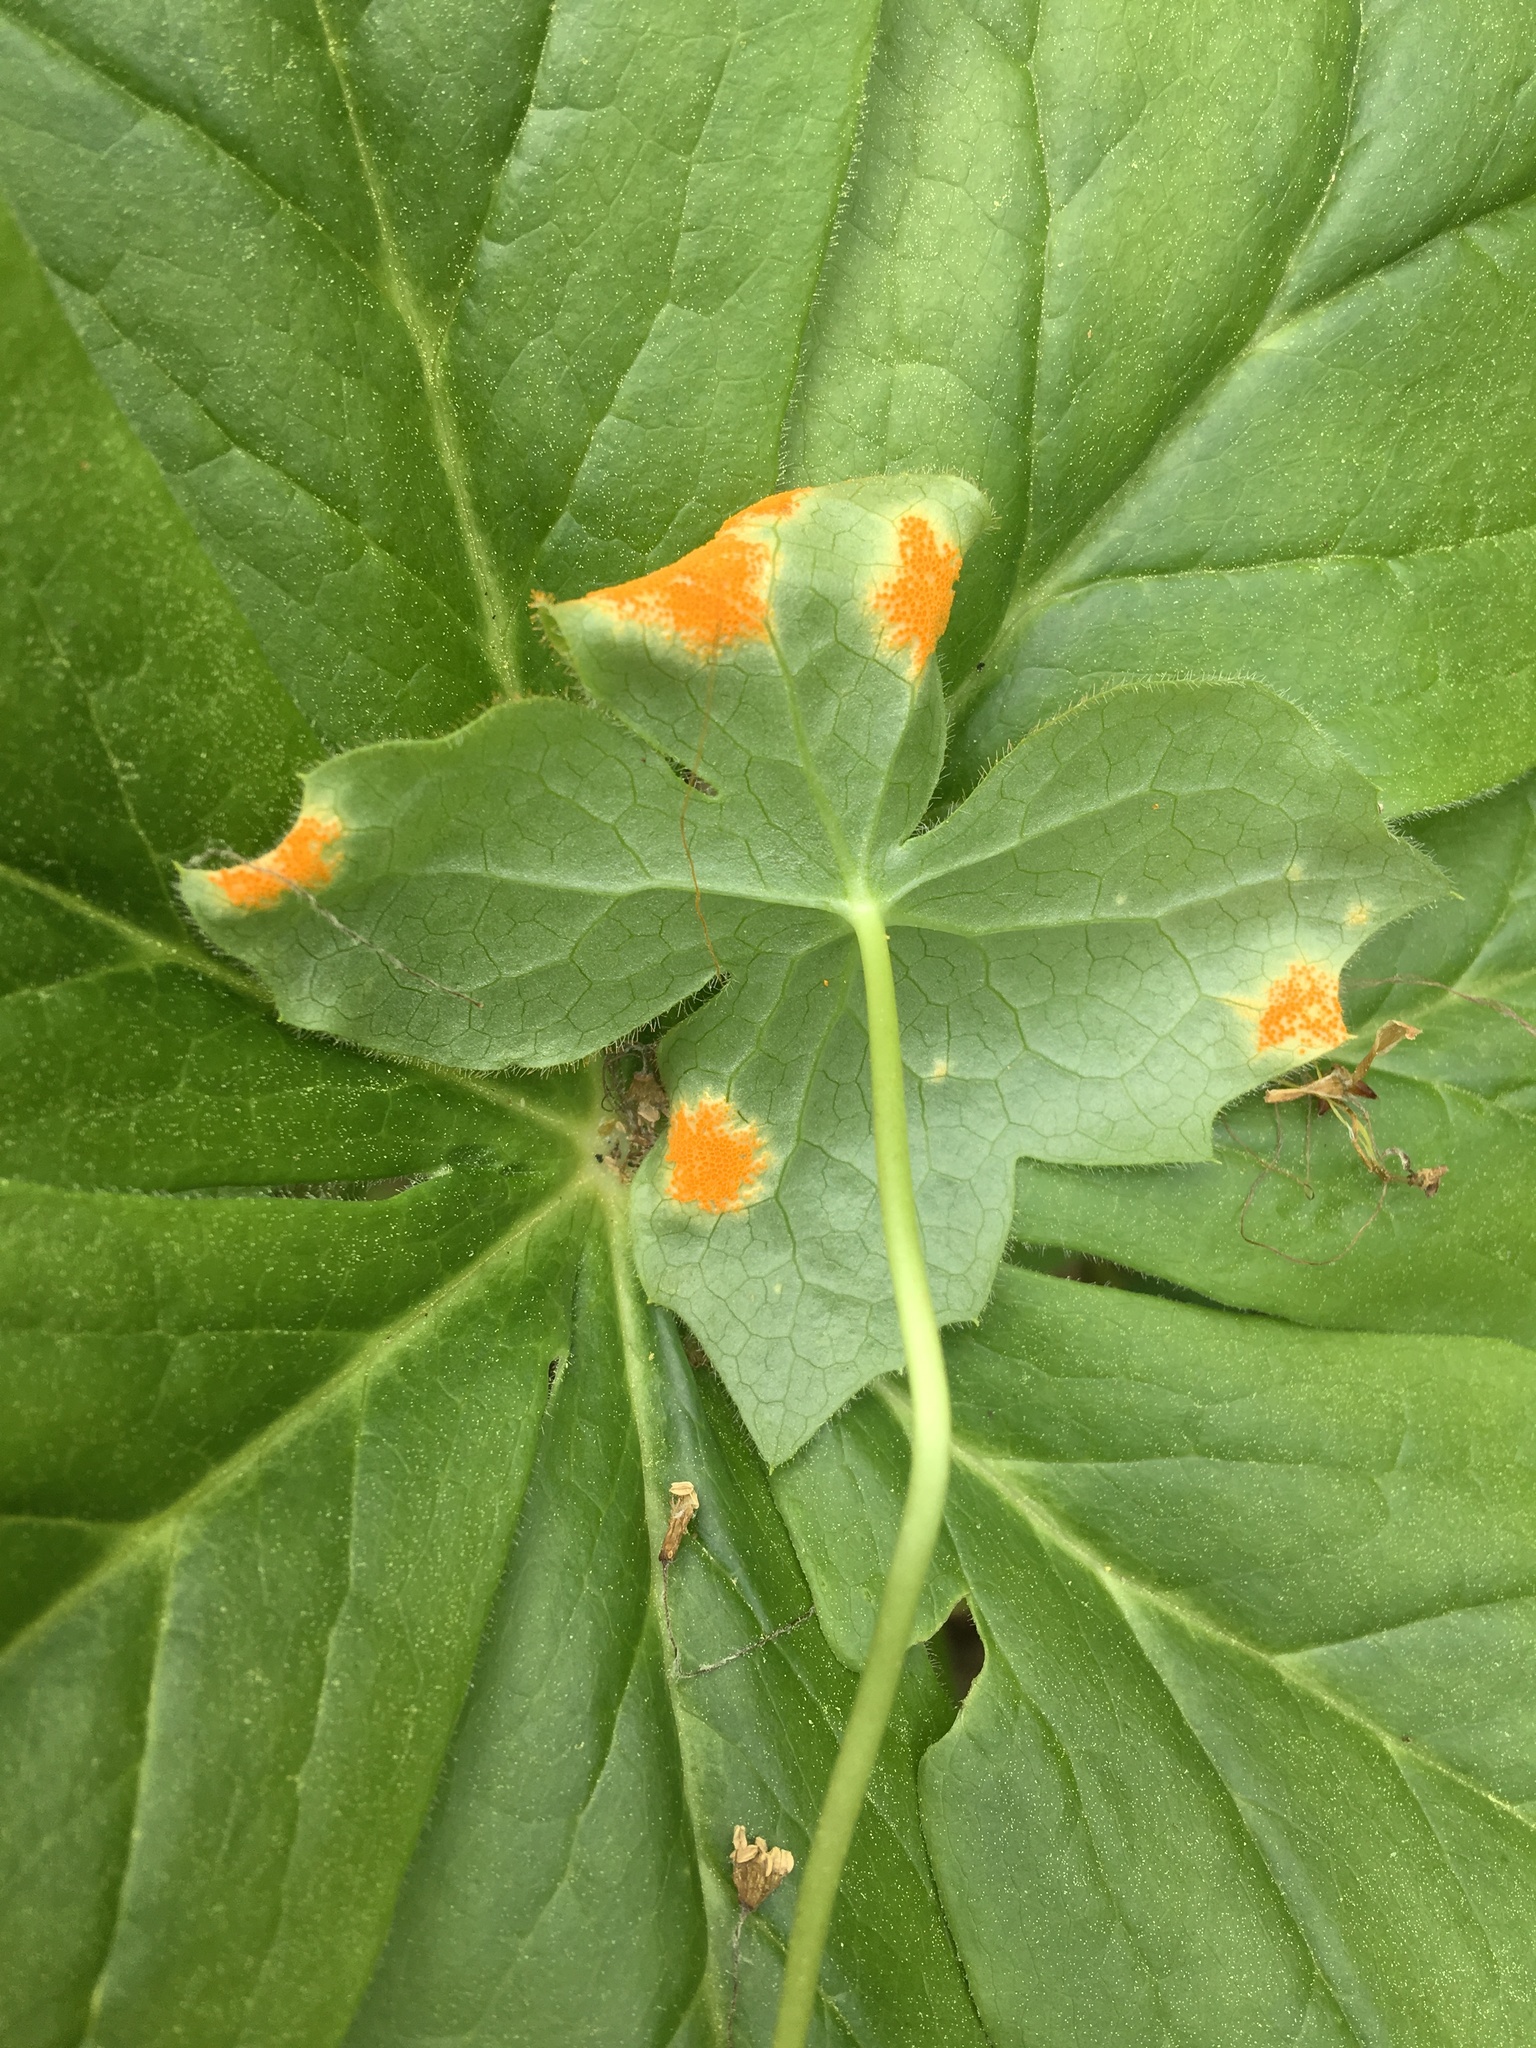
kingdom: Fungi
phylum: Basidiomycota
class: Pucciniomycetes
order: Pucciniales
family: Pucciniaceae
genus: Puccinia
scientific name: Puccinia podophylli
